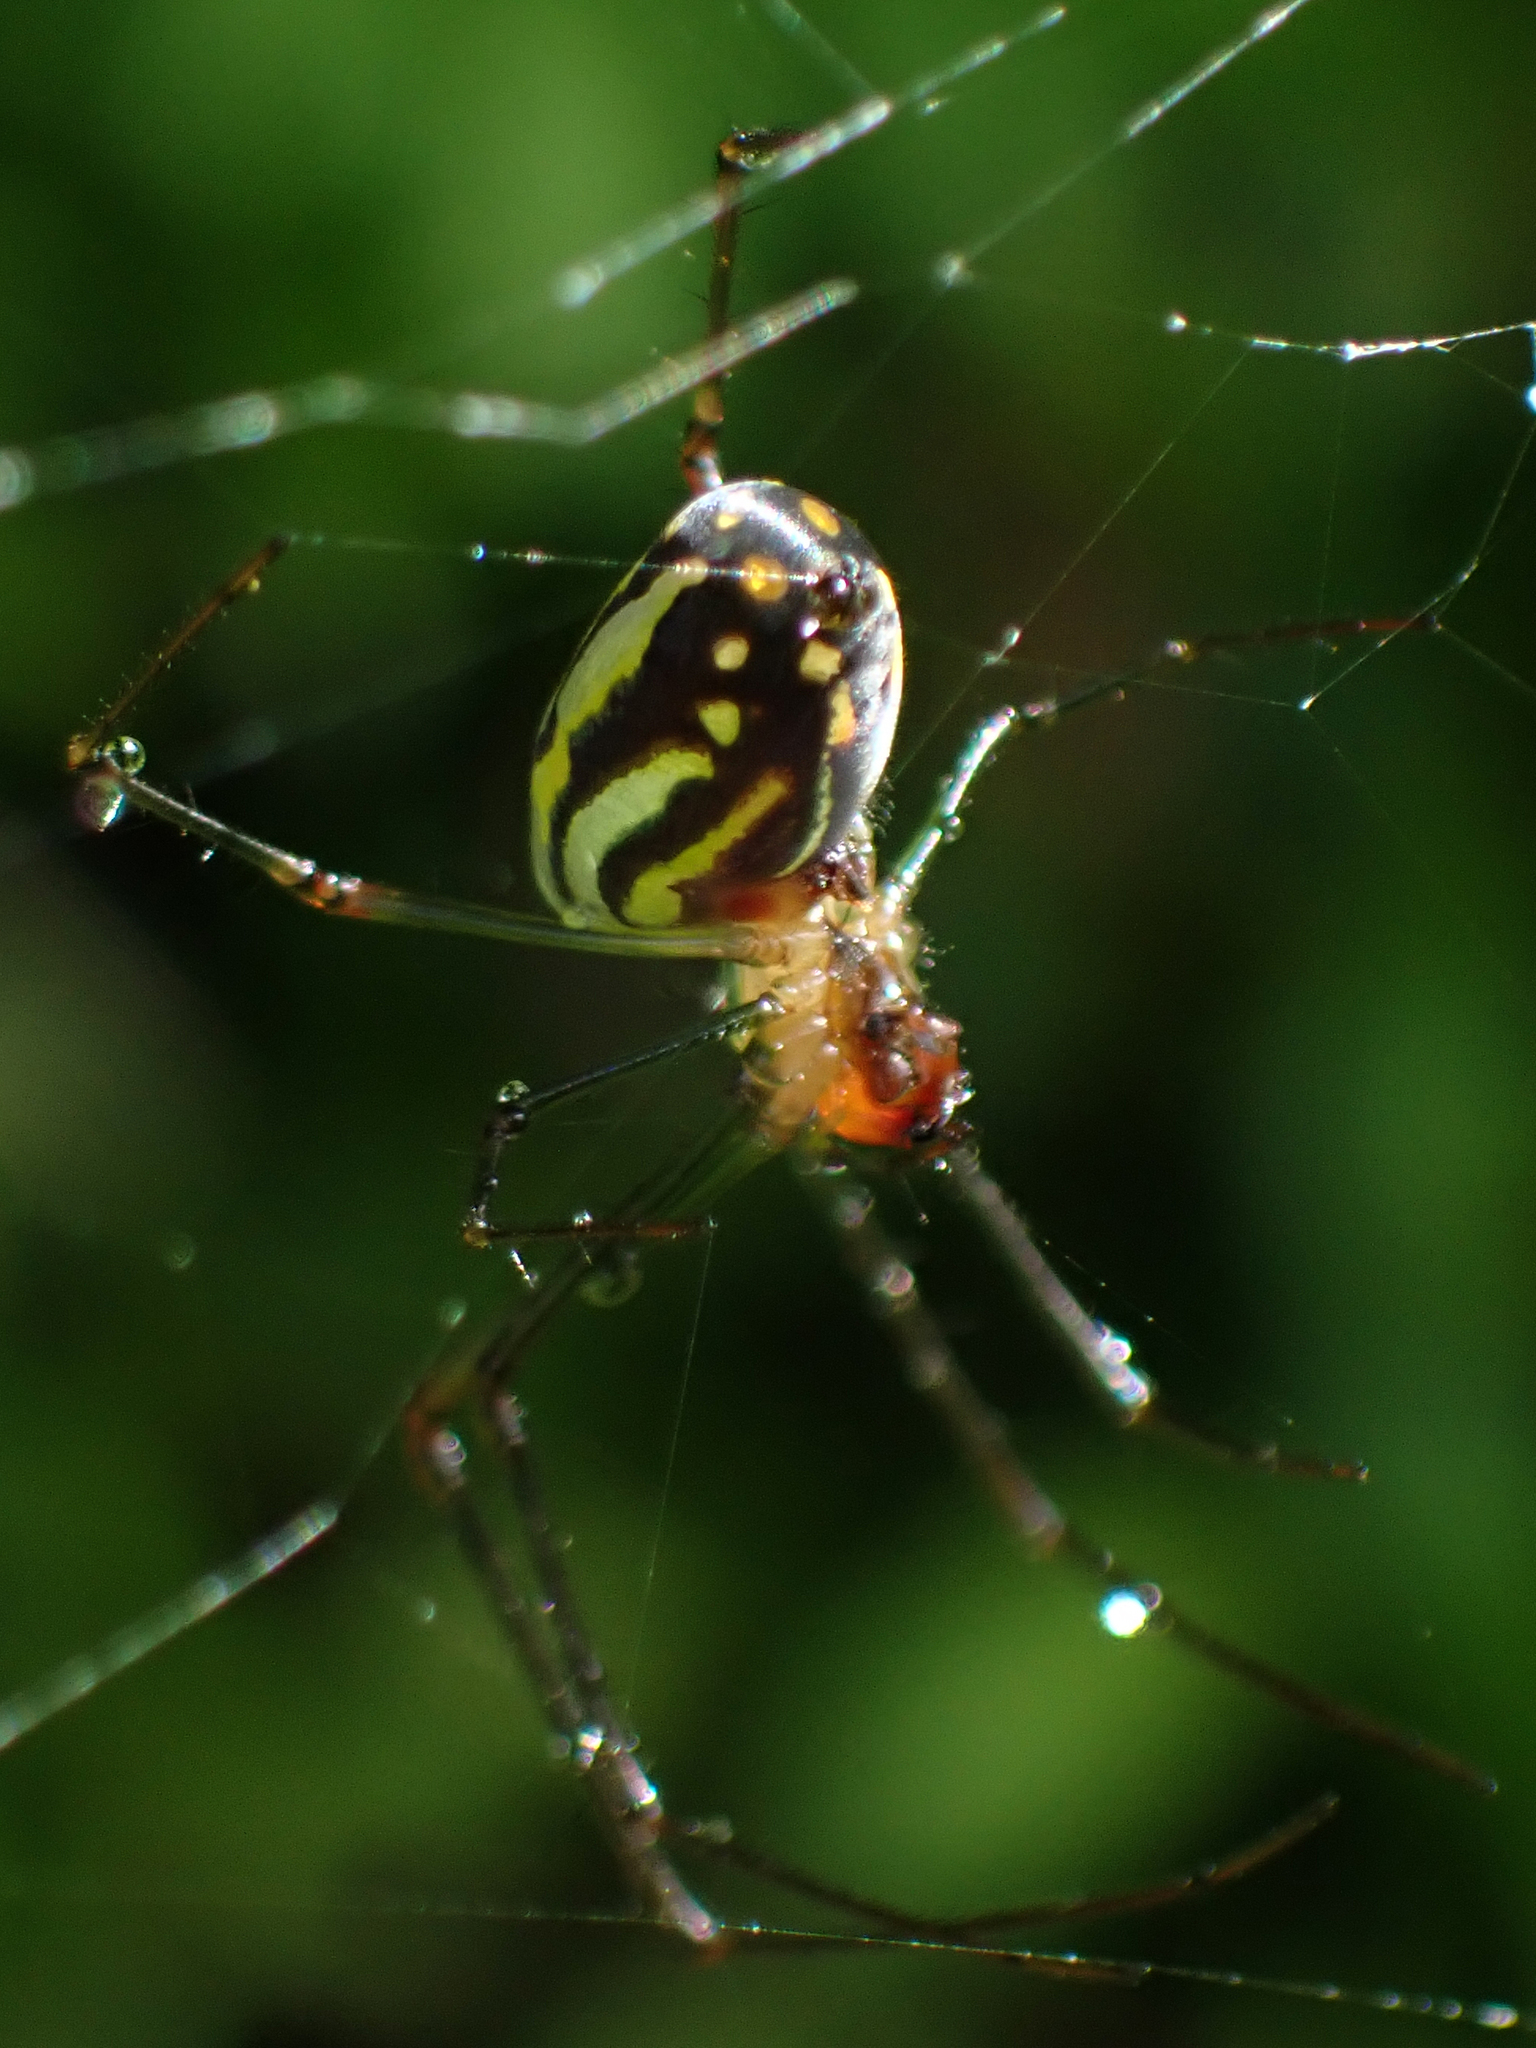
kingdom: Animalia
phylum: Arthropoda
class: Arachnida
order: Araneae
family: Tetragnathidae
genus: Leucauge
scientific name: Leucauge argyra
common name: Longjawed orb weavers
